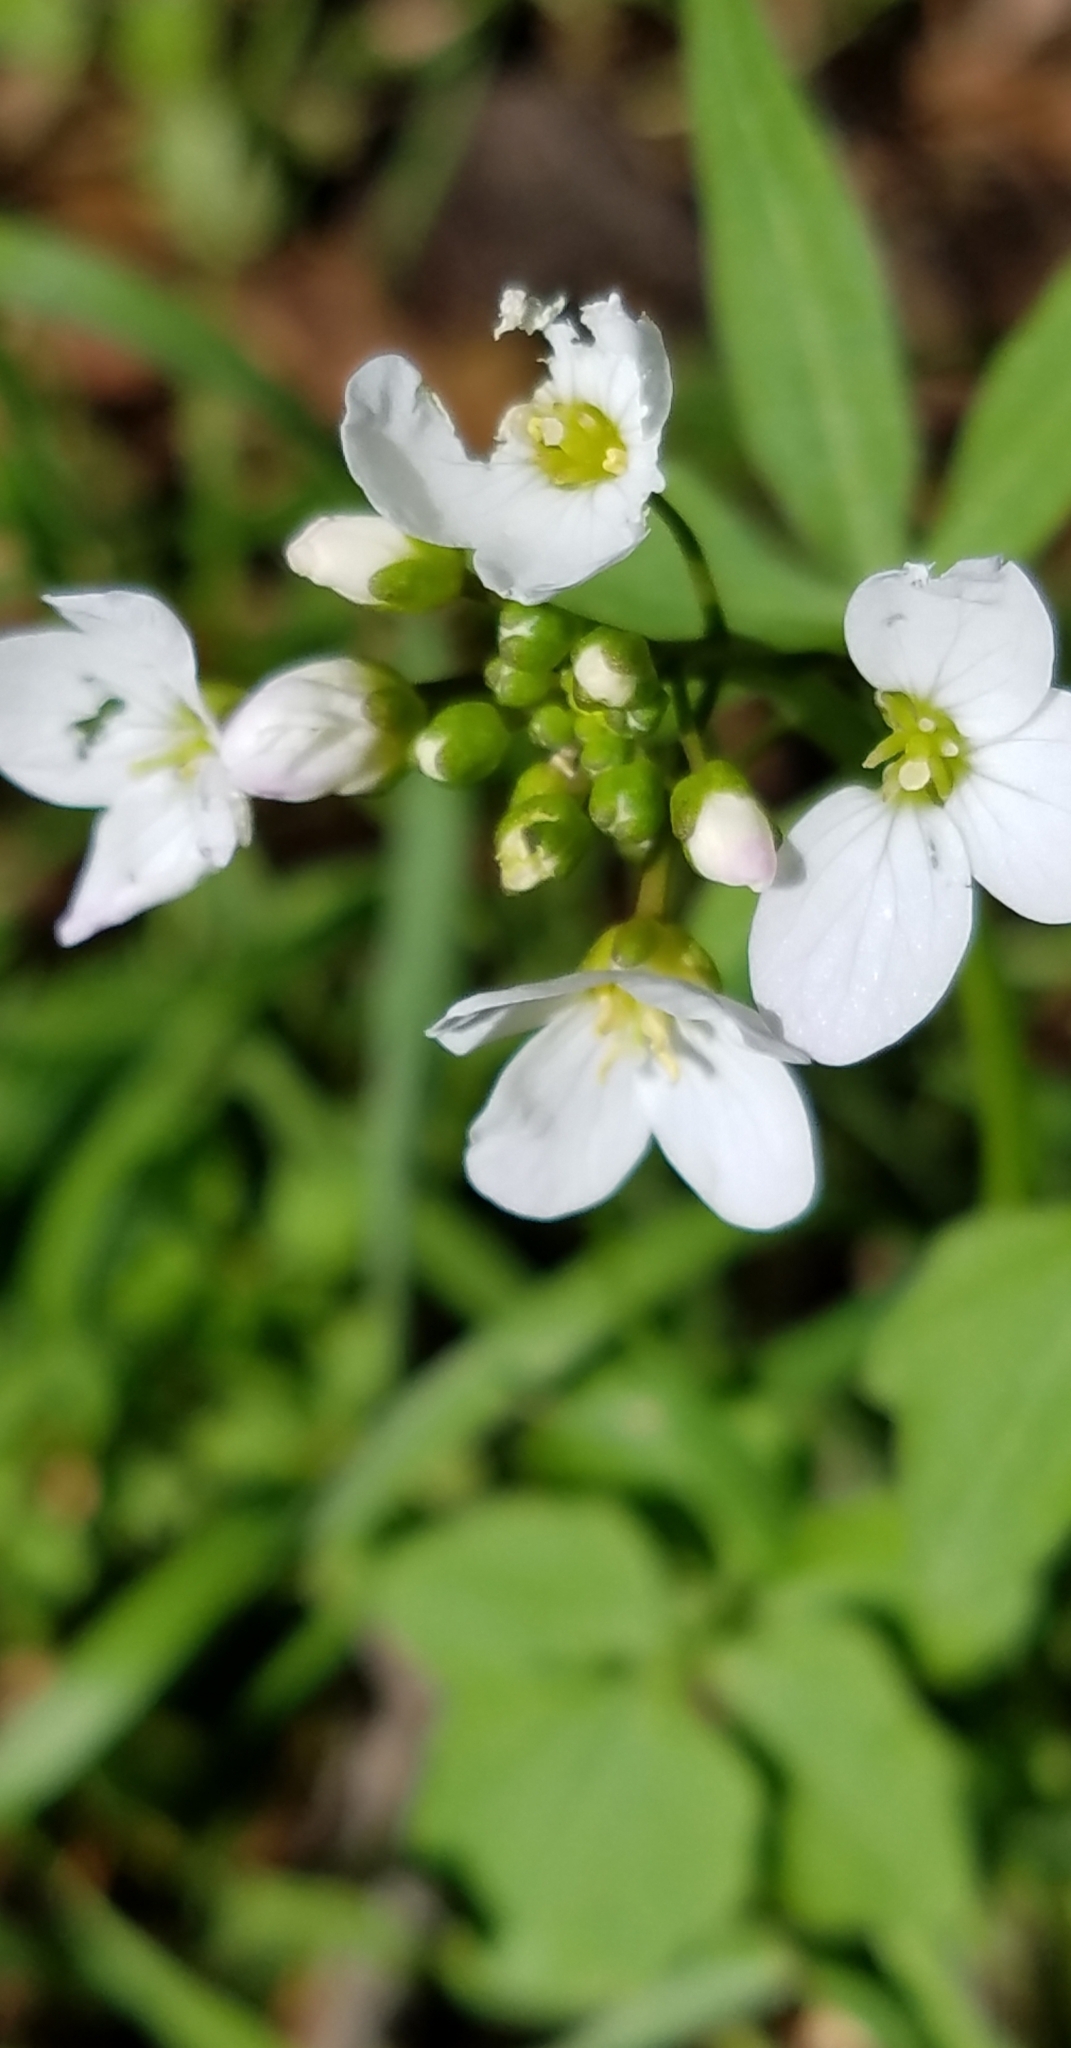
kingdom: Plantae
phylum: Tracheophyta
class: Magnoliopsida
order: Brassicales
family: Brassicaceae
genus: Cardamine
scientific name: Cardamine californica
